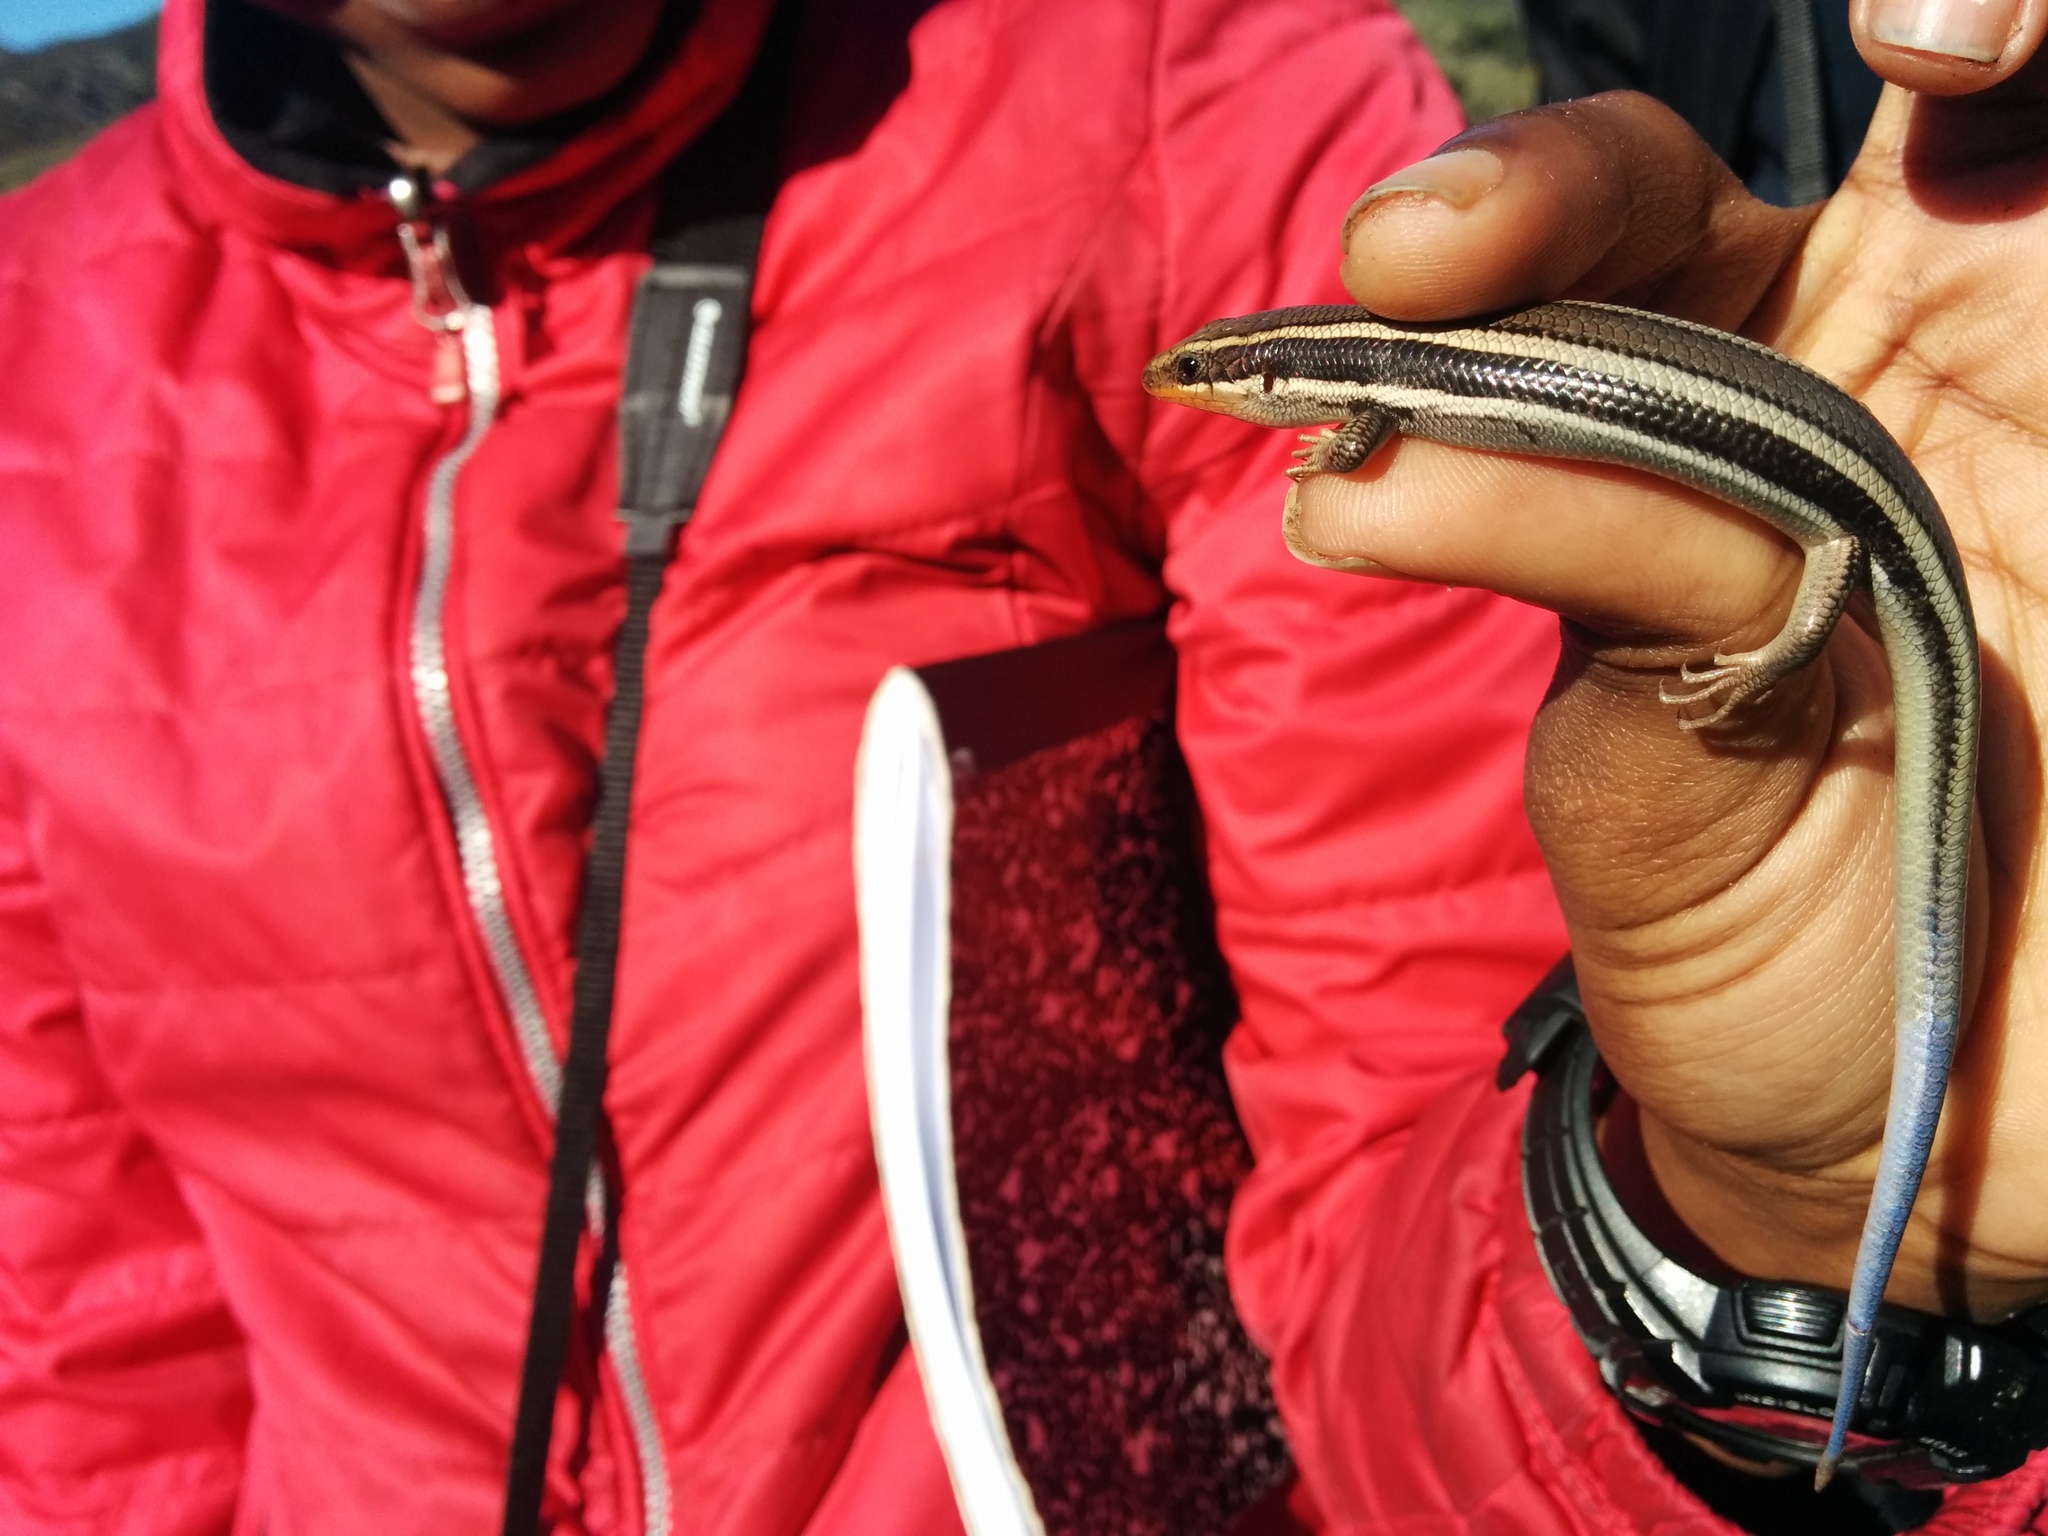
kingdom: Animalia
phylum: Chordata
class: Squamata
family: Scincidae
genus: Plestiodon
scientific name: Plestiodon skiltonianus
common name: Coronado island skink [interparietalis]
